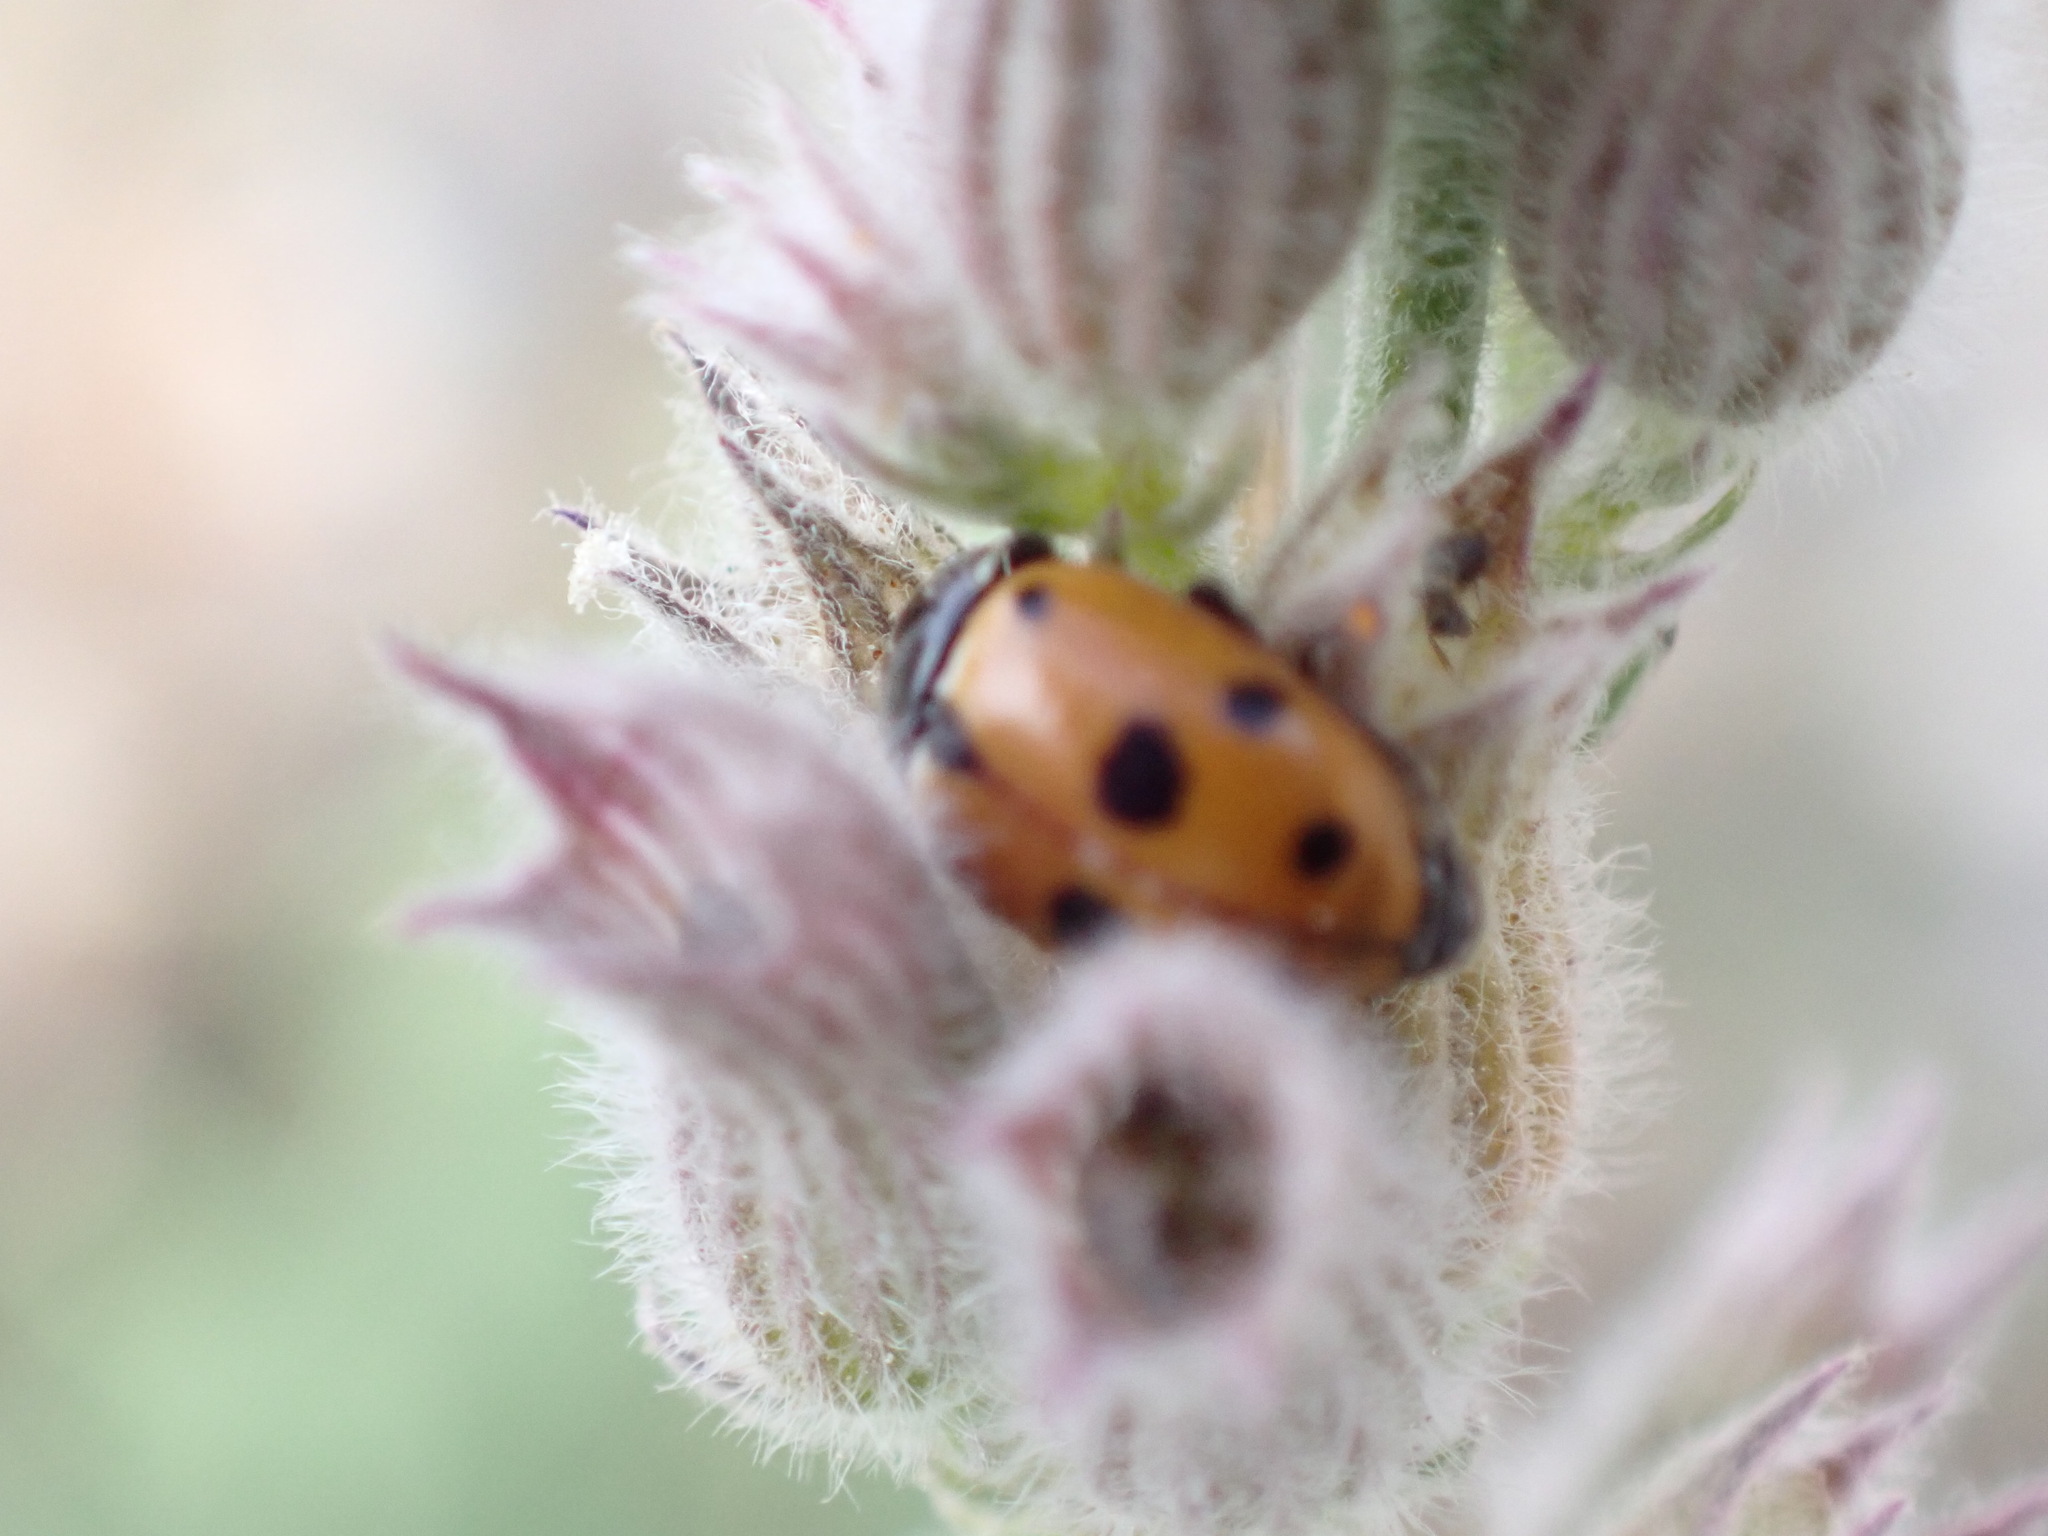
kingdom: Animalia
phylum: Arthropoda
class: Insecta
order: Coleoptera
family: Coccinellidae
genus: Hippodamia
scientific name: Hippodamia variegata
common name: Ladybird beetle
